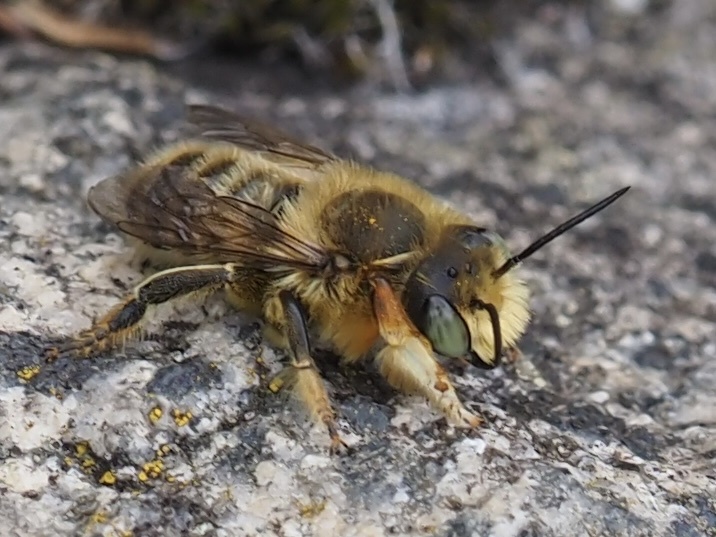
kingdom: Animalia
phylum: Arthropoda
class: Insecta
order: Hymenoptera
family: Megachilidae
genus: Megachile
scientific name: Megachile perihirta
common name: Western leafcutter
